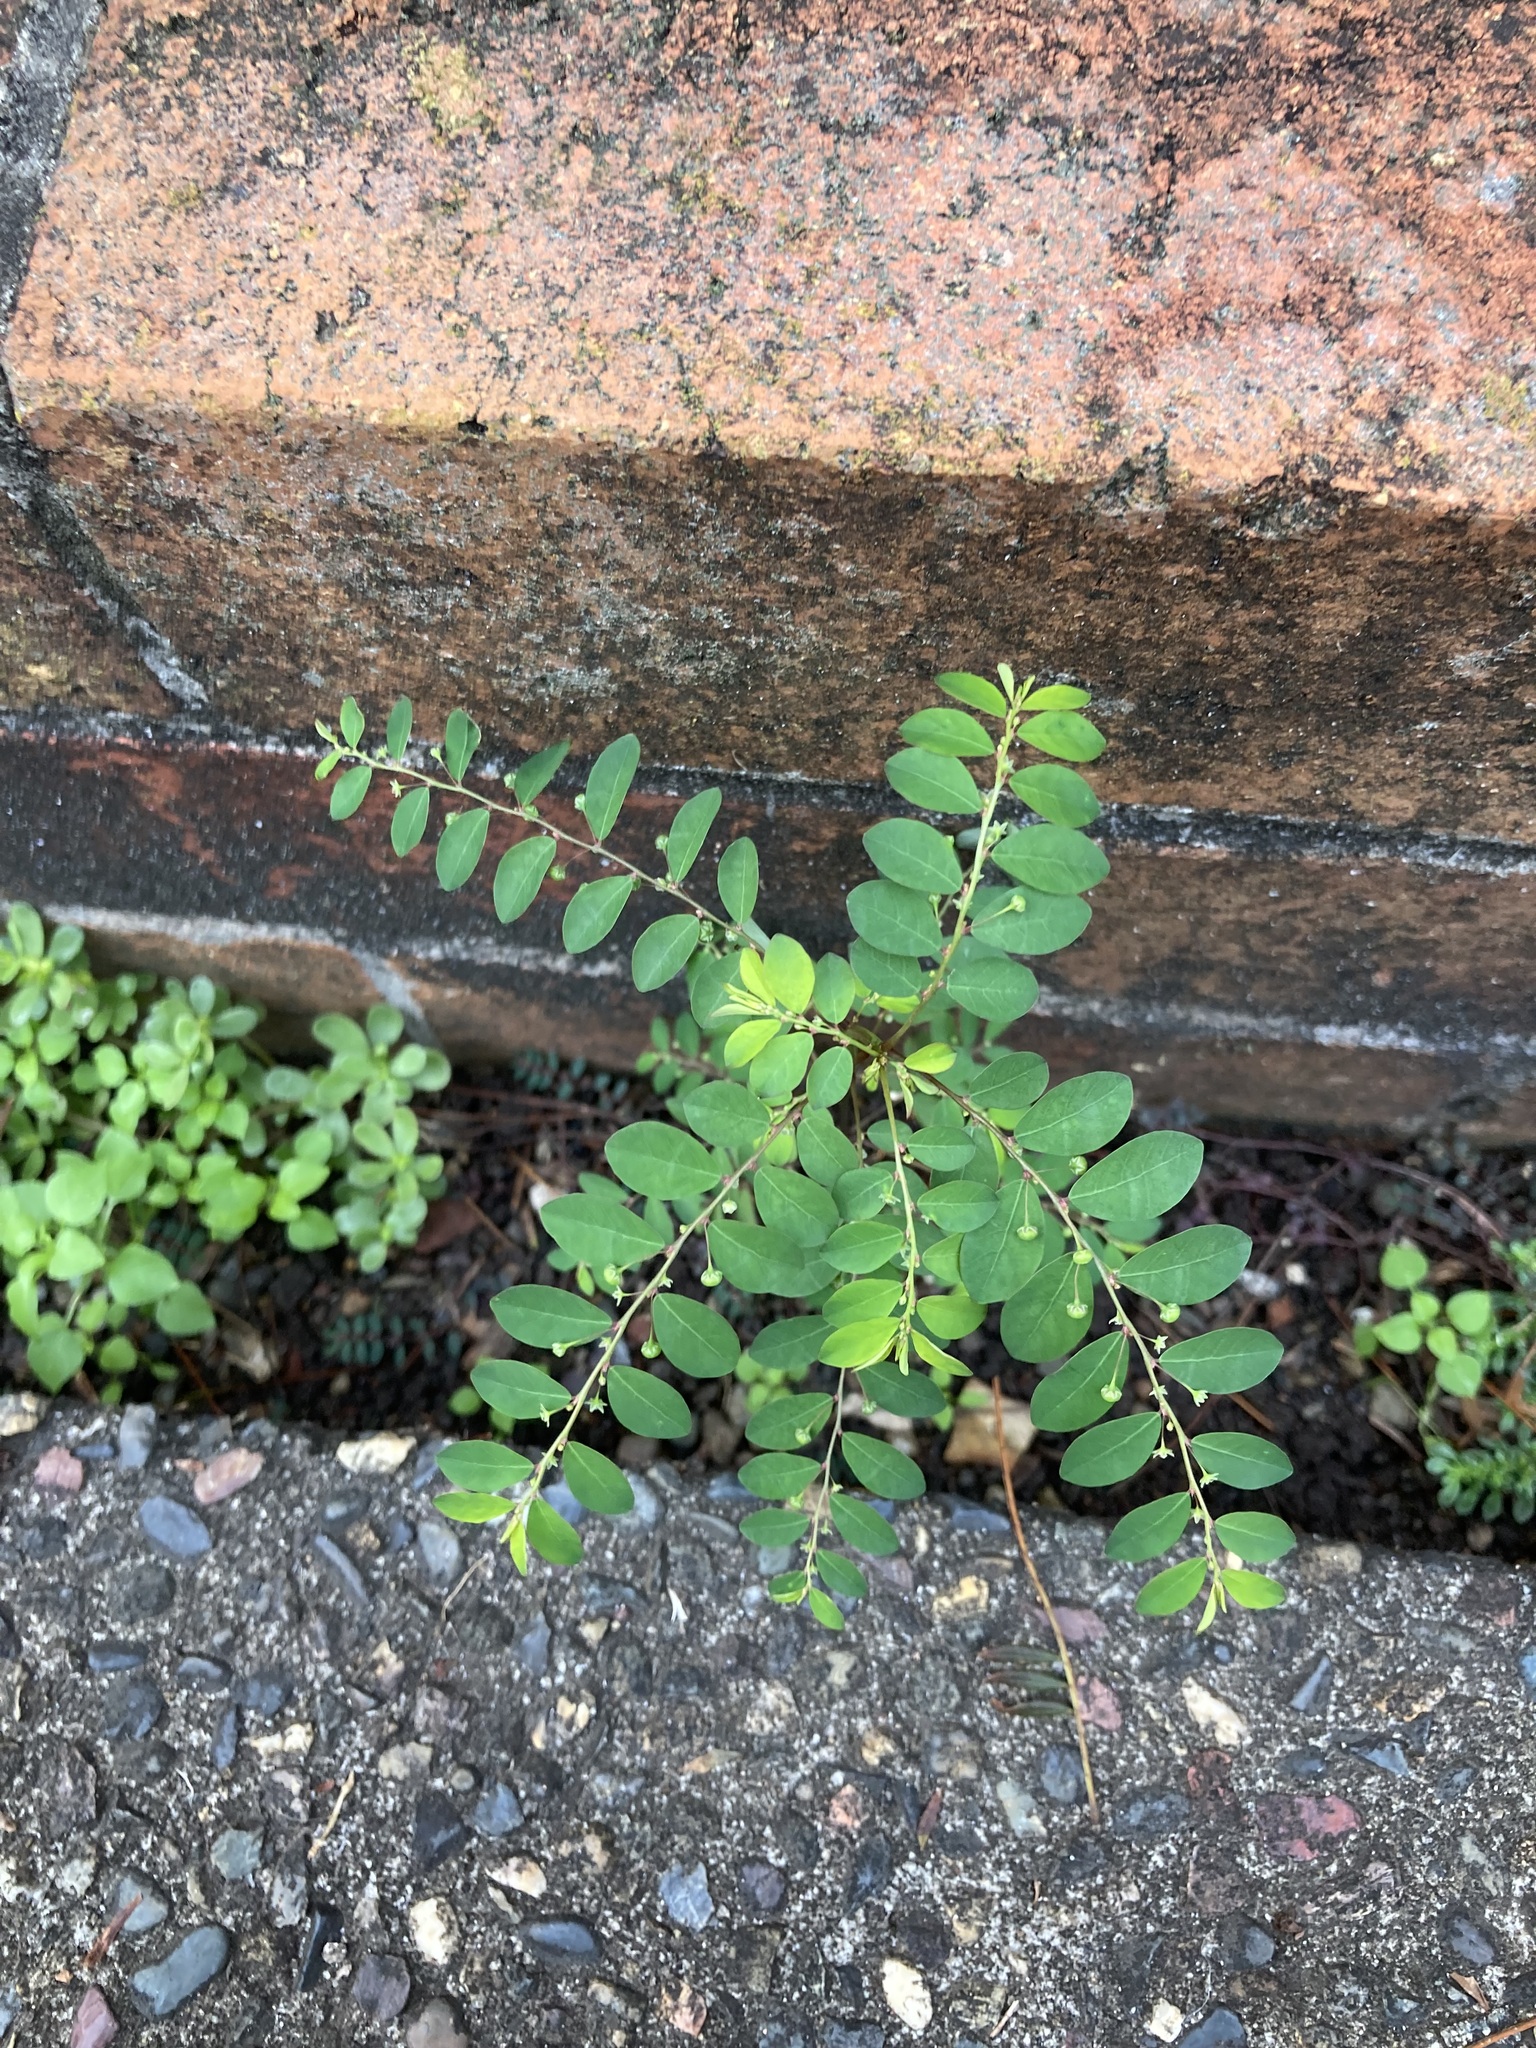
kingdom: Plantae
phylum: Tracheophyta
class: Magnoliopsida
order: Malpighiales
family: Phyllanthaceae
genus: Phyllanthus
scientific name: Phyllanthus tenellus
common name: Mascarene island leaf-flower
